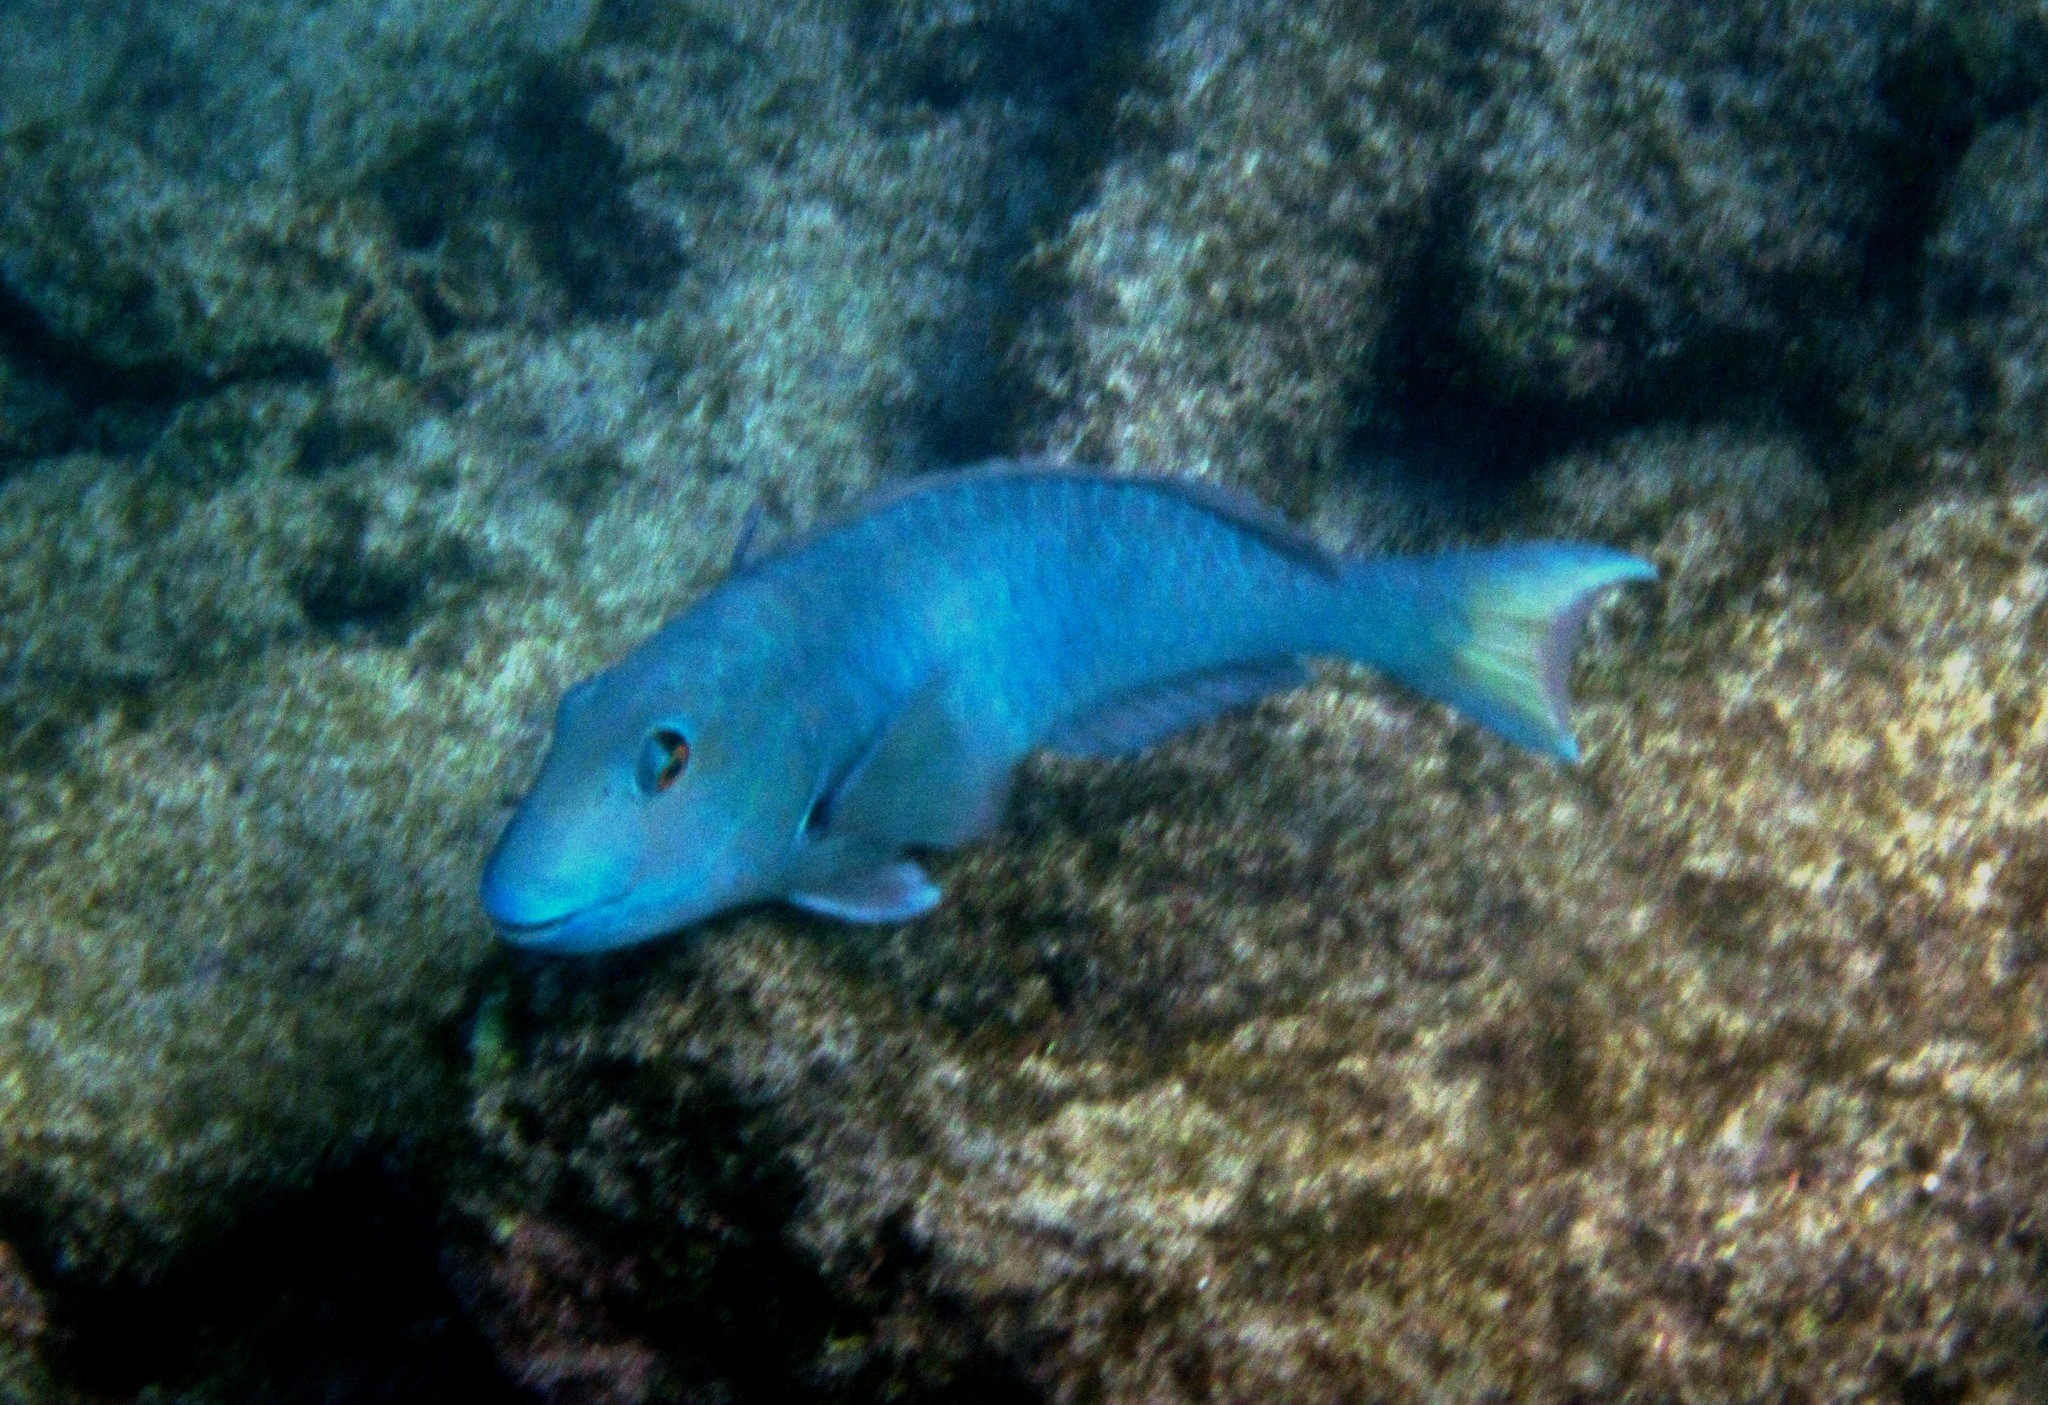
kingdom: Animalia
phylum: Chordata
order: Perciformes
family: Scaridae
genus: Sparisoma
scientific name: Sparisoma rubripinne
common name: Redfin parrotfish
